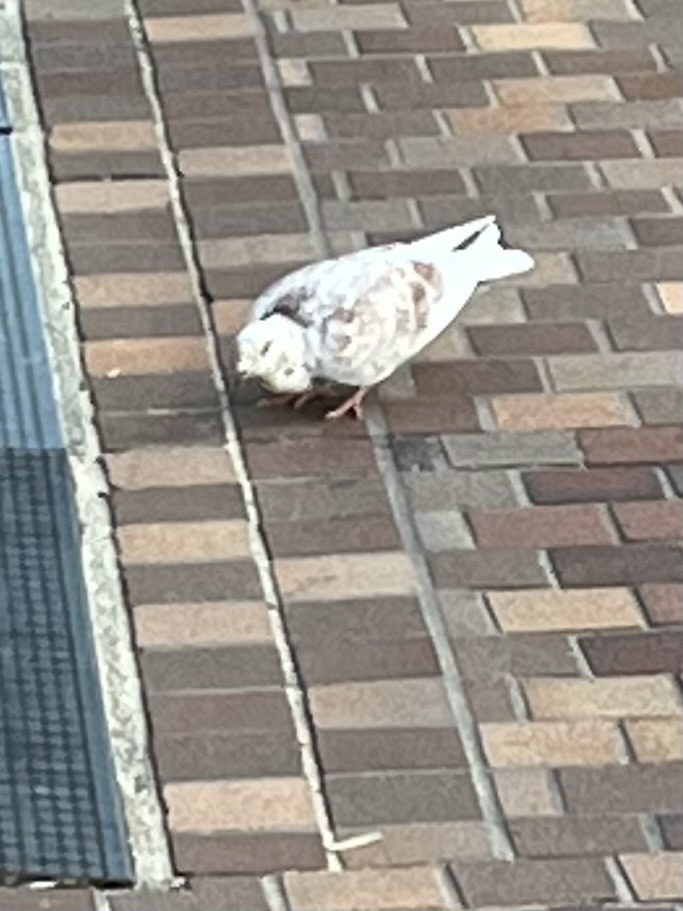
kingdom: Animalia
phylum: Chordata
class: Aves
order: Columbiformes
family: Columbidae
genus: Columba
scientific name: Columba livia
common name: Rock pigeon
